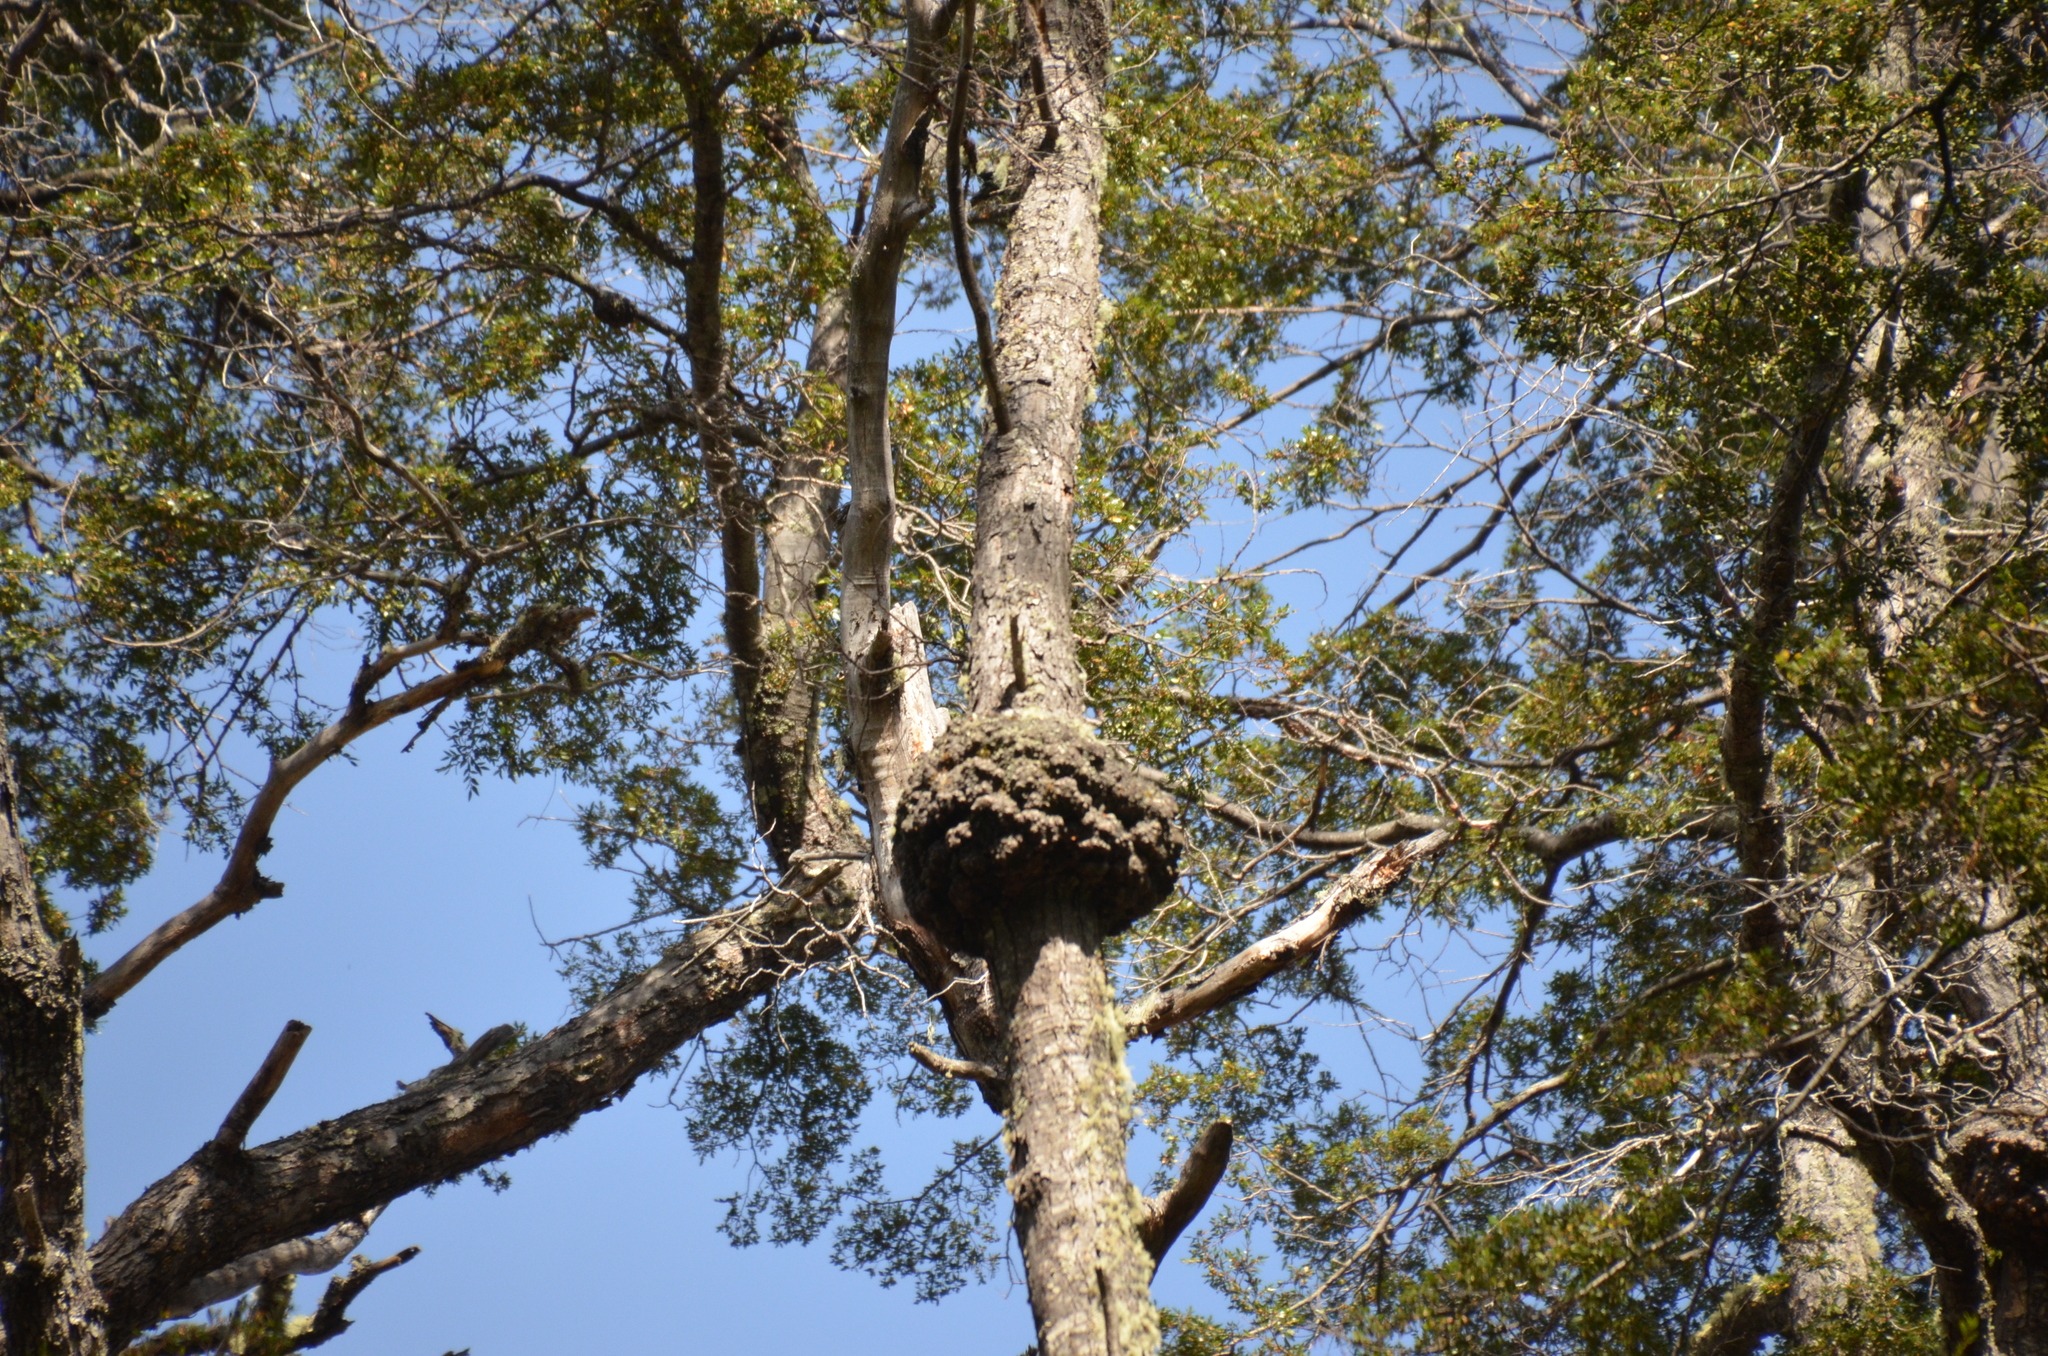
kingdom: Fungi
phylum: Ascomycota
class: Leotiomycetes
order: Cyttariales
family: Cyttariaceae
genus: Cyttaria
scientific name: Cyttaria hariotii
